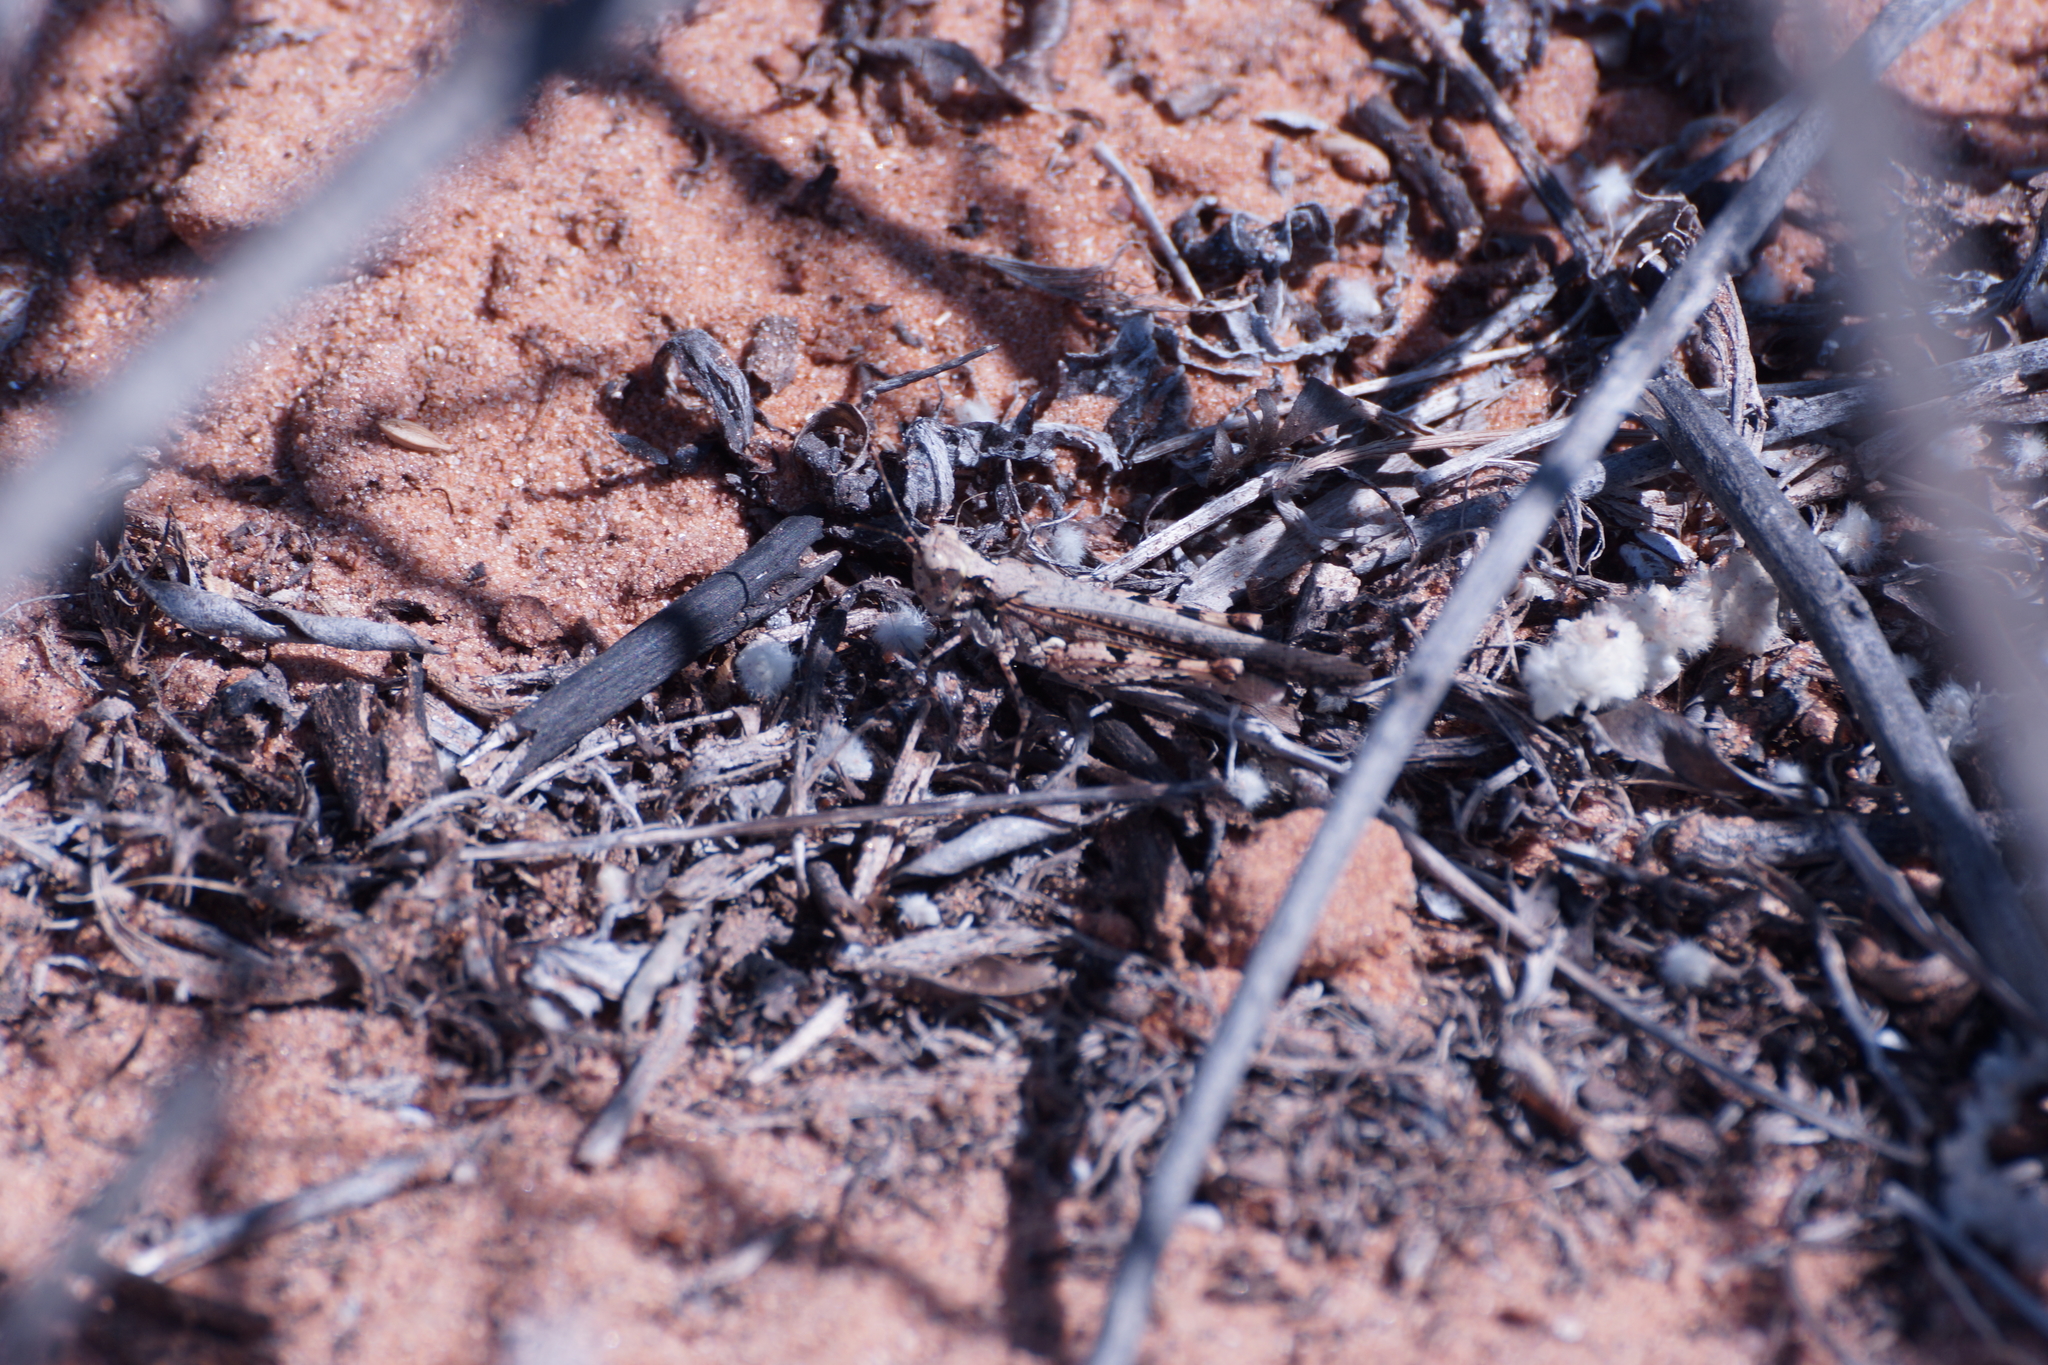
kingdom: Animalia
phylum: Arthropoda
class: Insecta
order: Orthoptera
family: Acrididae
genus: Pycnostictus
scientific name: Pycnostictus seriatus
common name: Common bandwing
